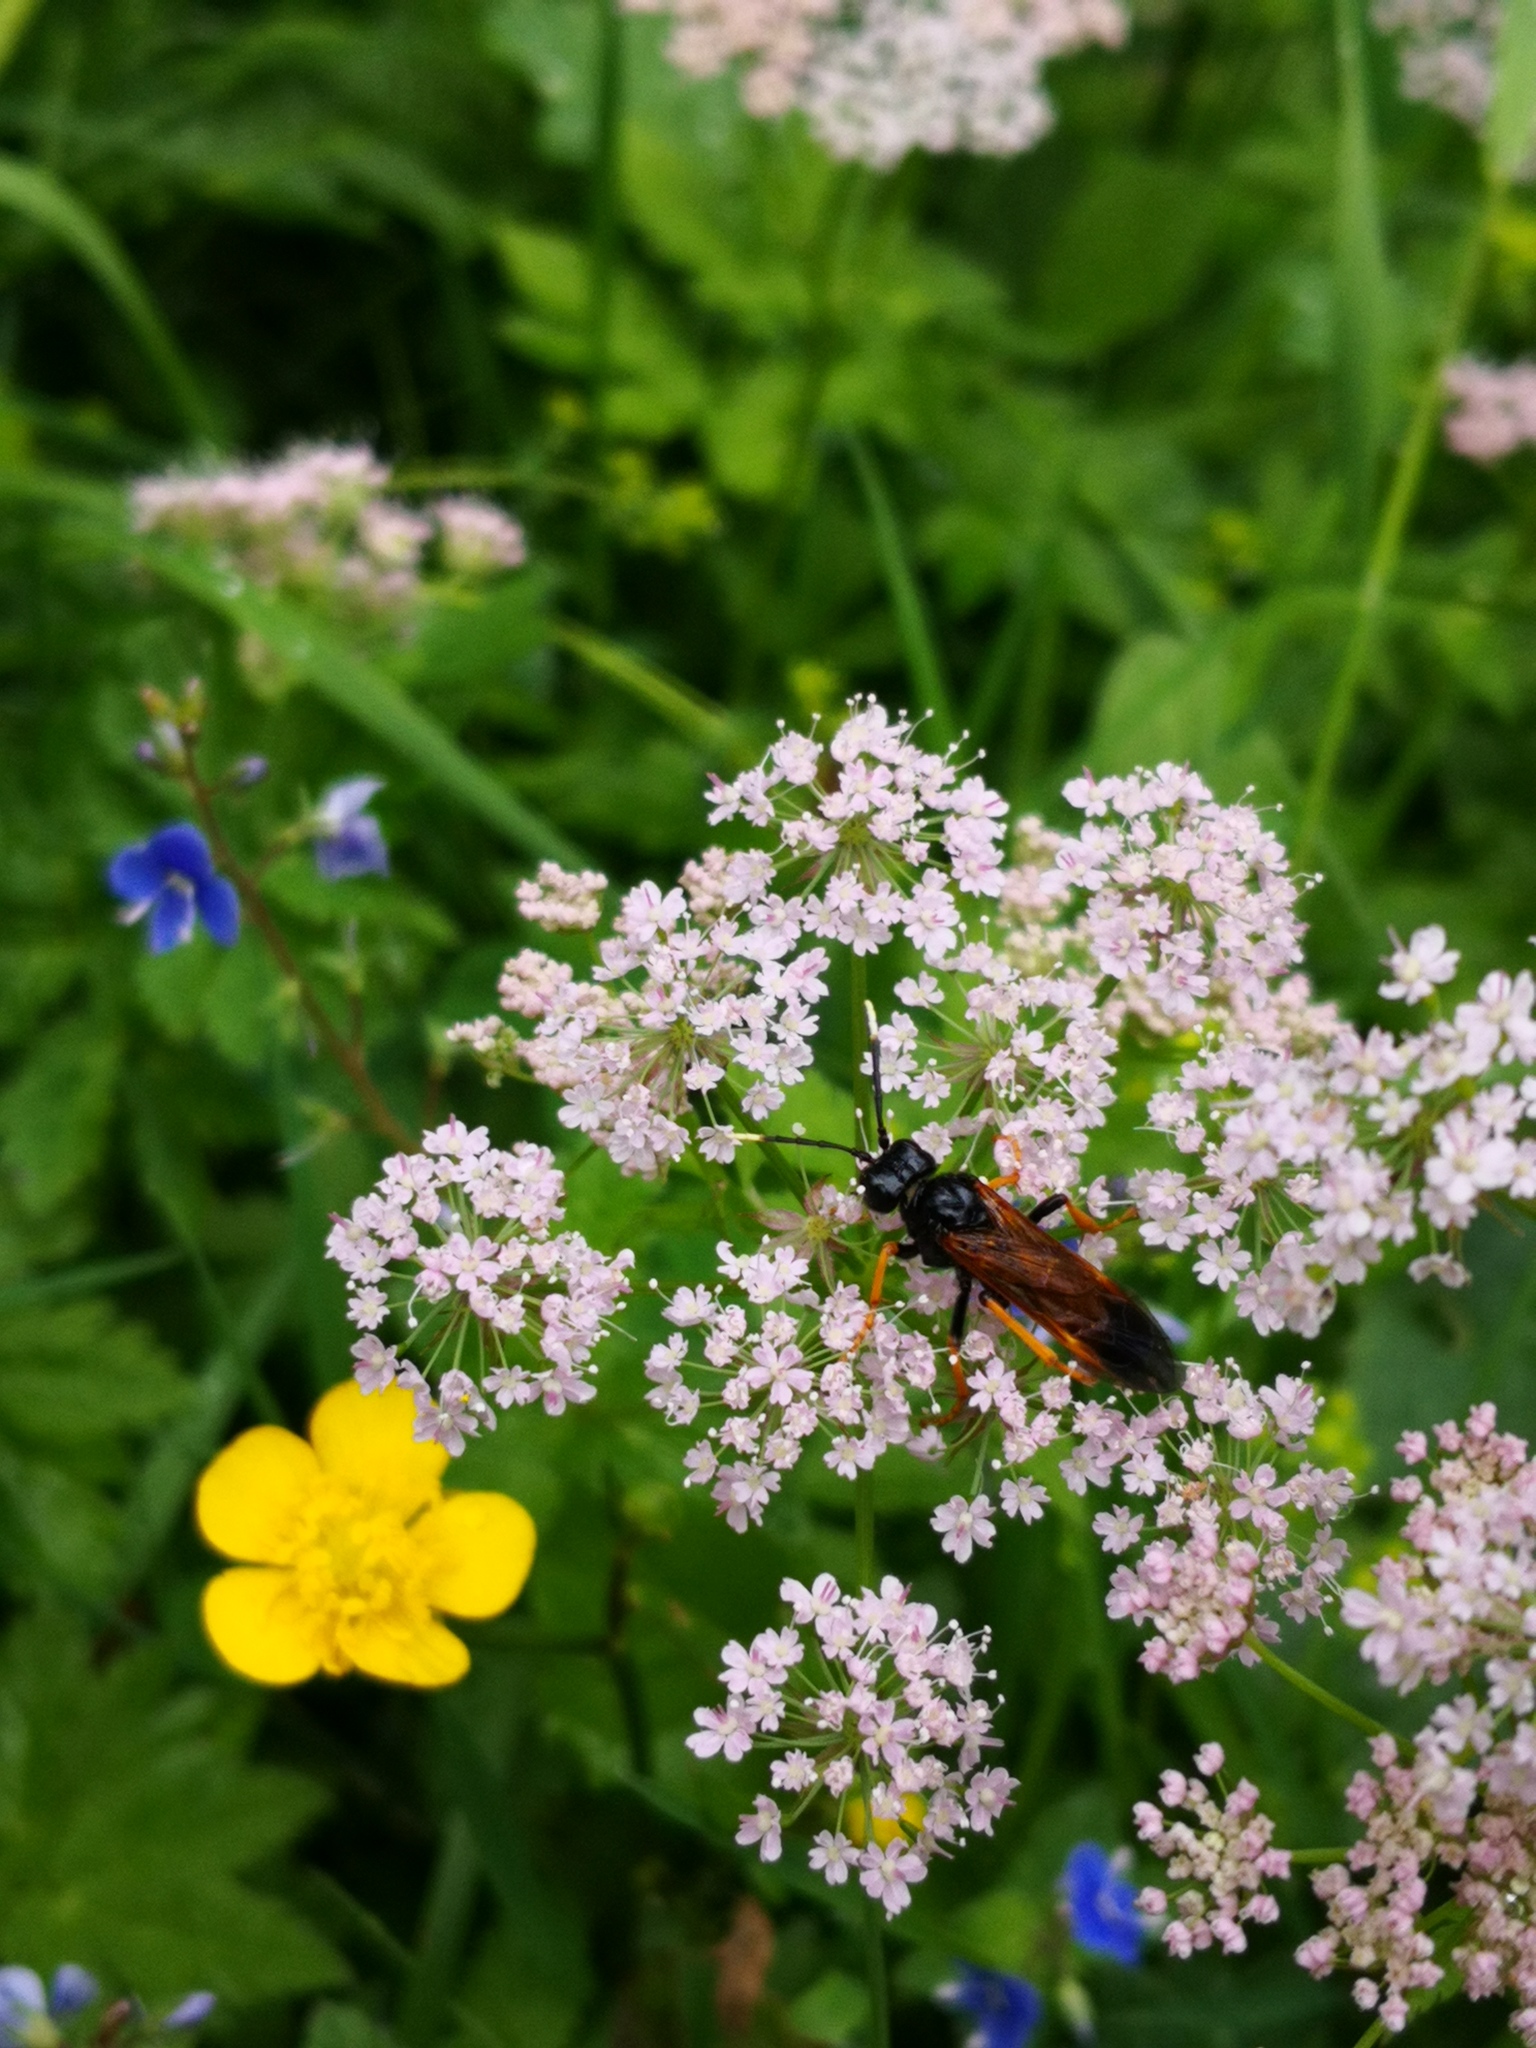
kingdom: Animalia
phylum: Arthropoda
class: Insecta
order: Hymenoptera
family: Tenthredinidae
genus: Tenthredo
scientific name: Tenthredo crassa
